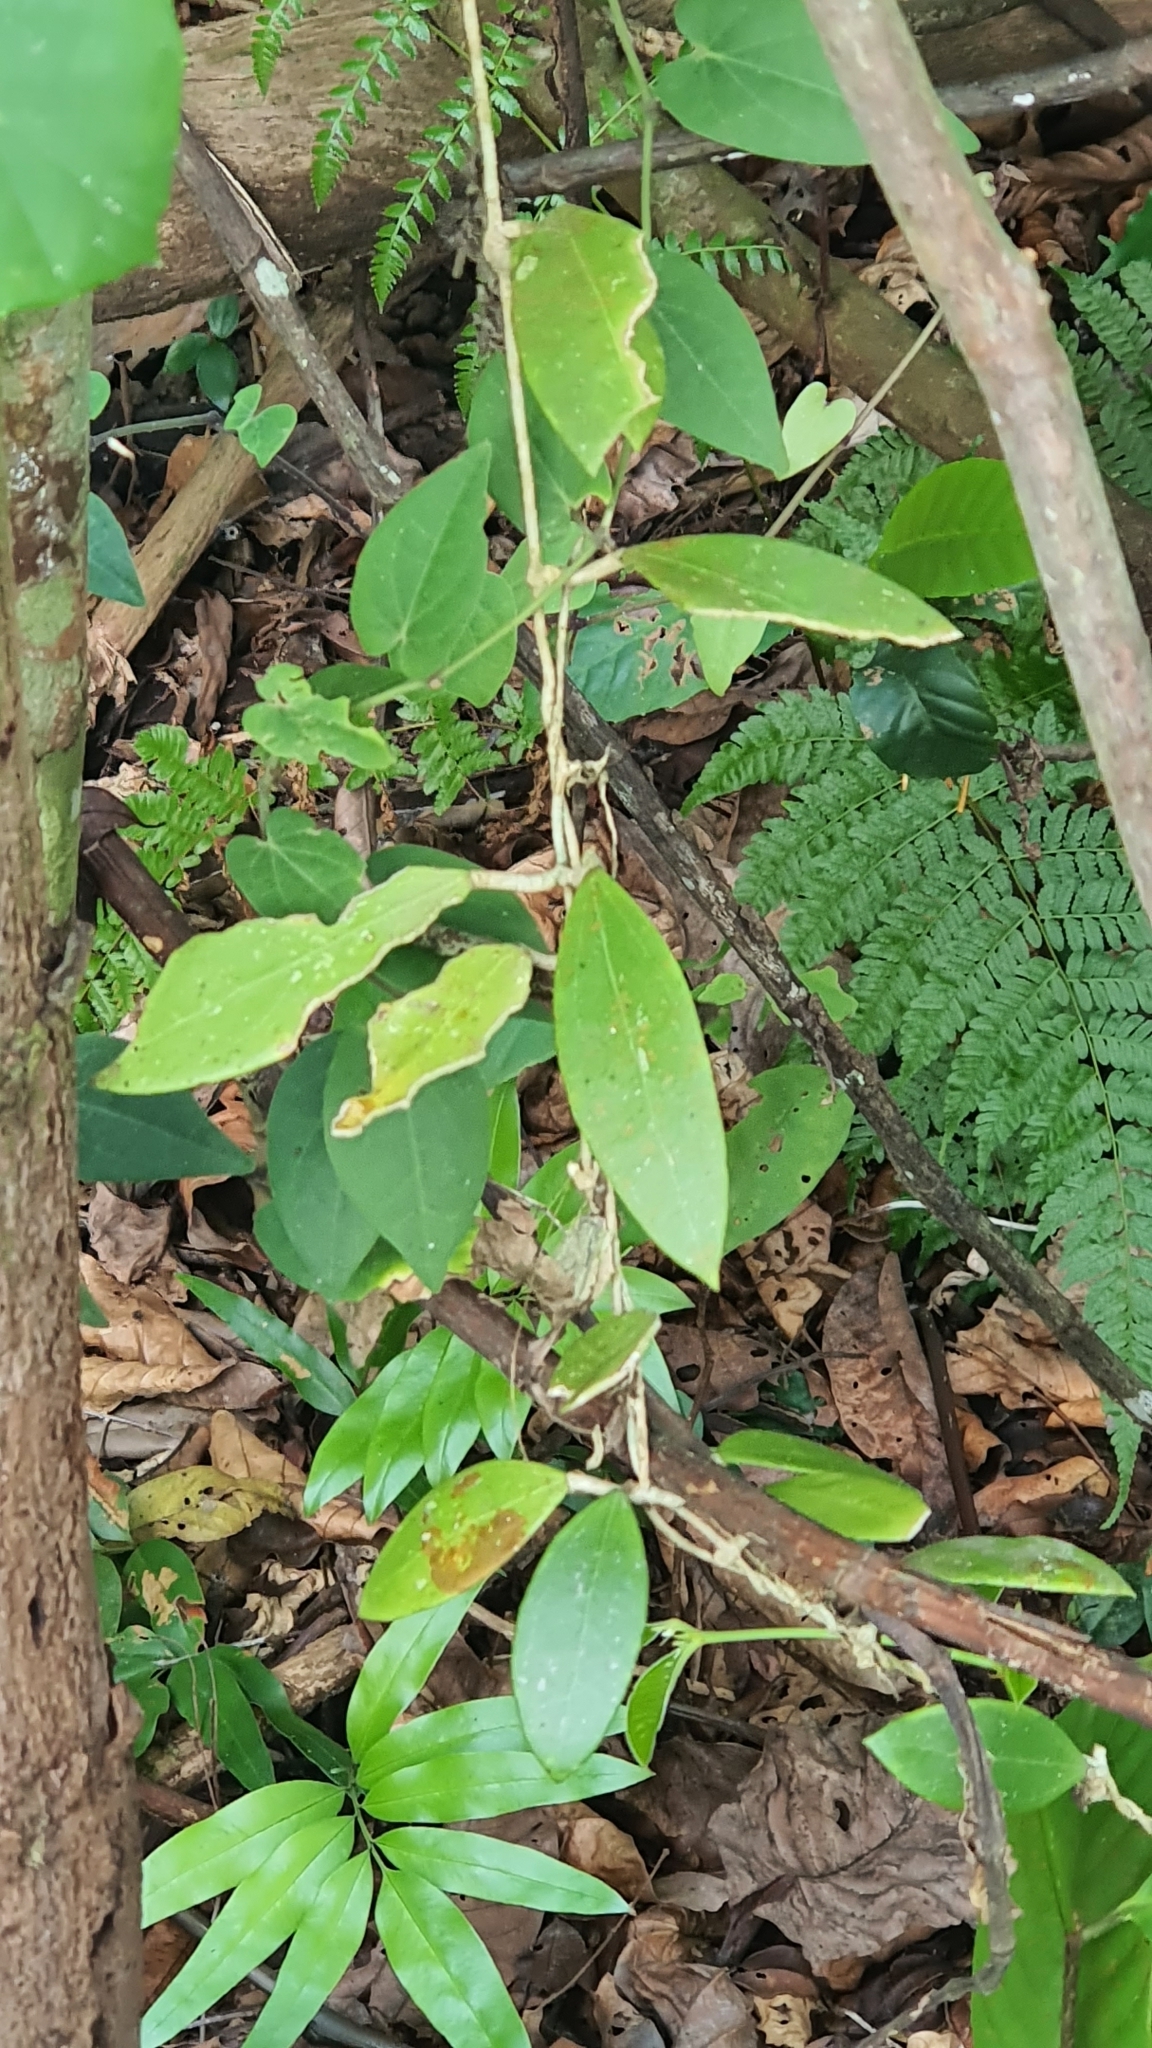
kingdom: Plantae
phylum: Tracheophyta
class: Magnoliopsida
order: Gentianales
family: Apocynaceae
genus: Hoya
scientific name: Hoya verticillata
